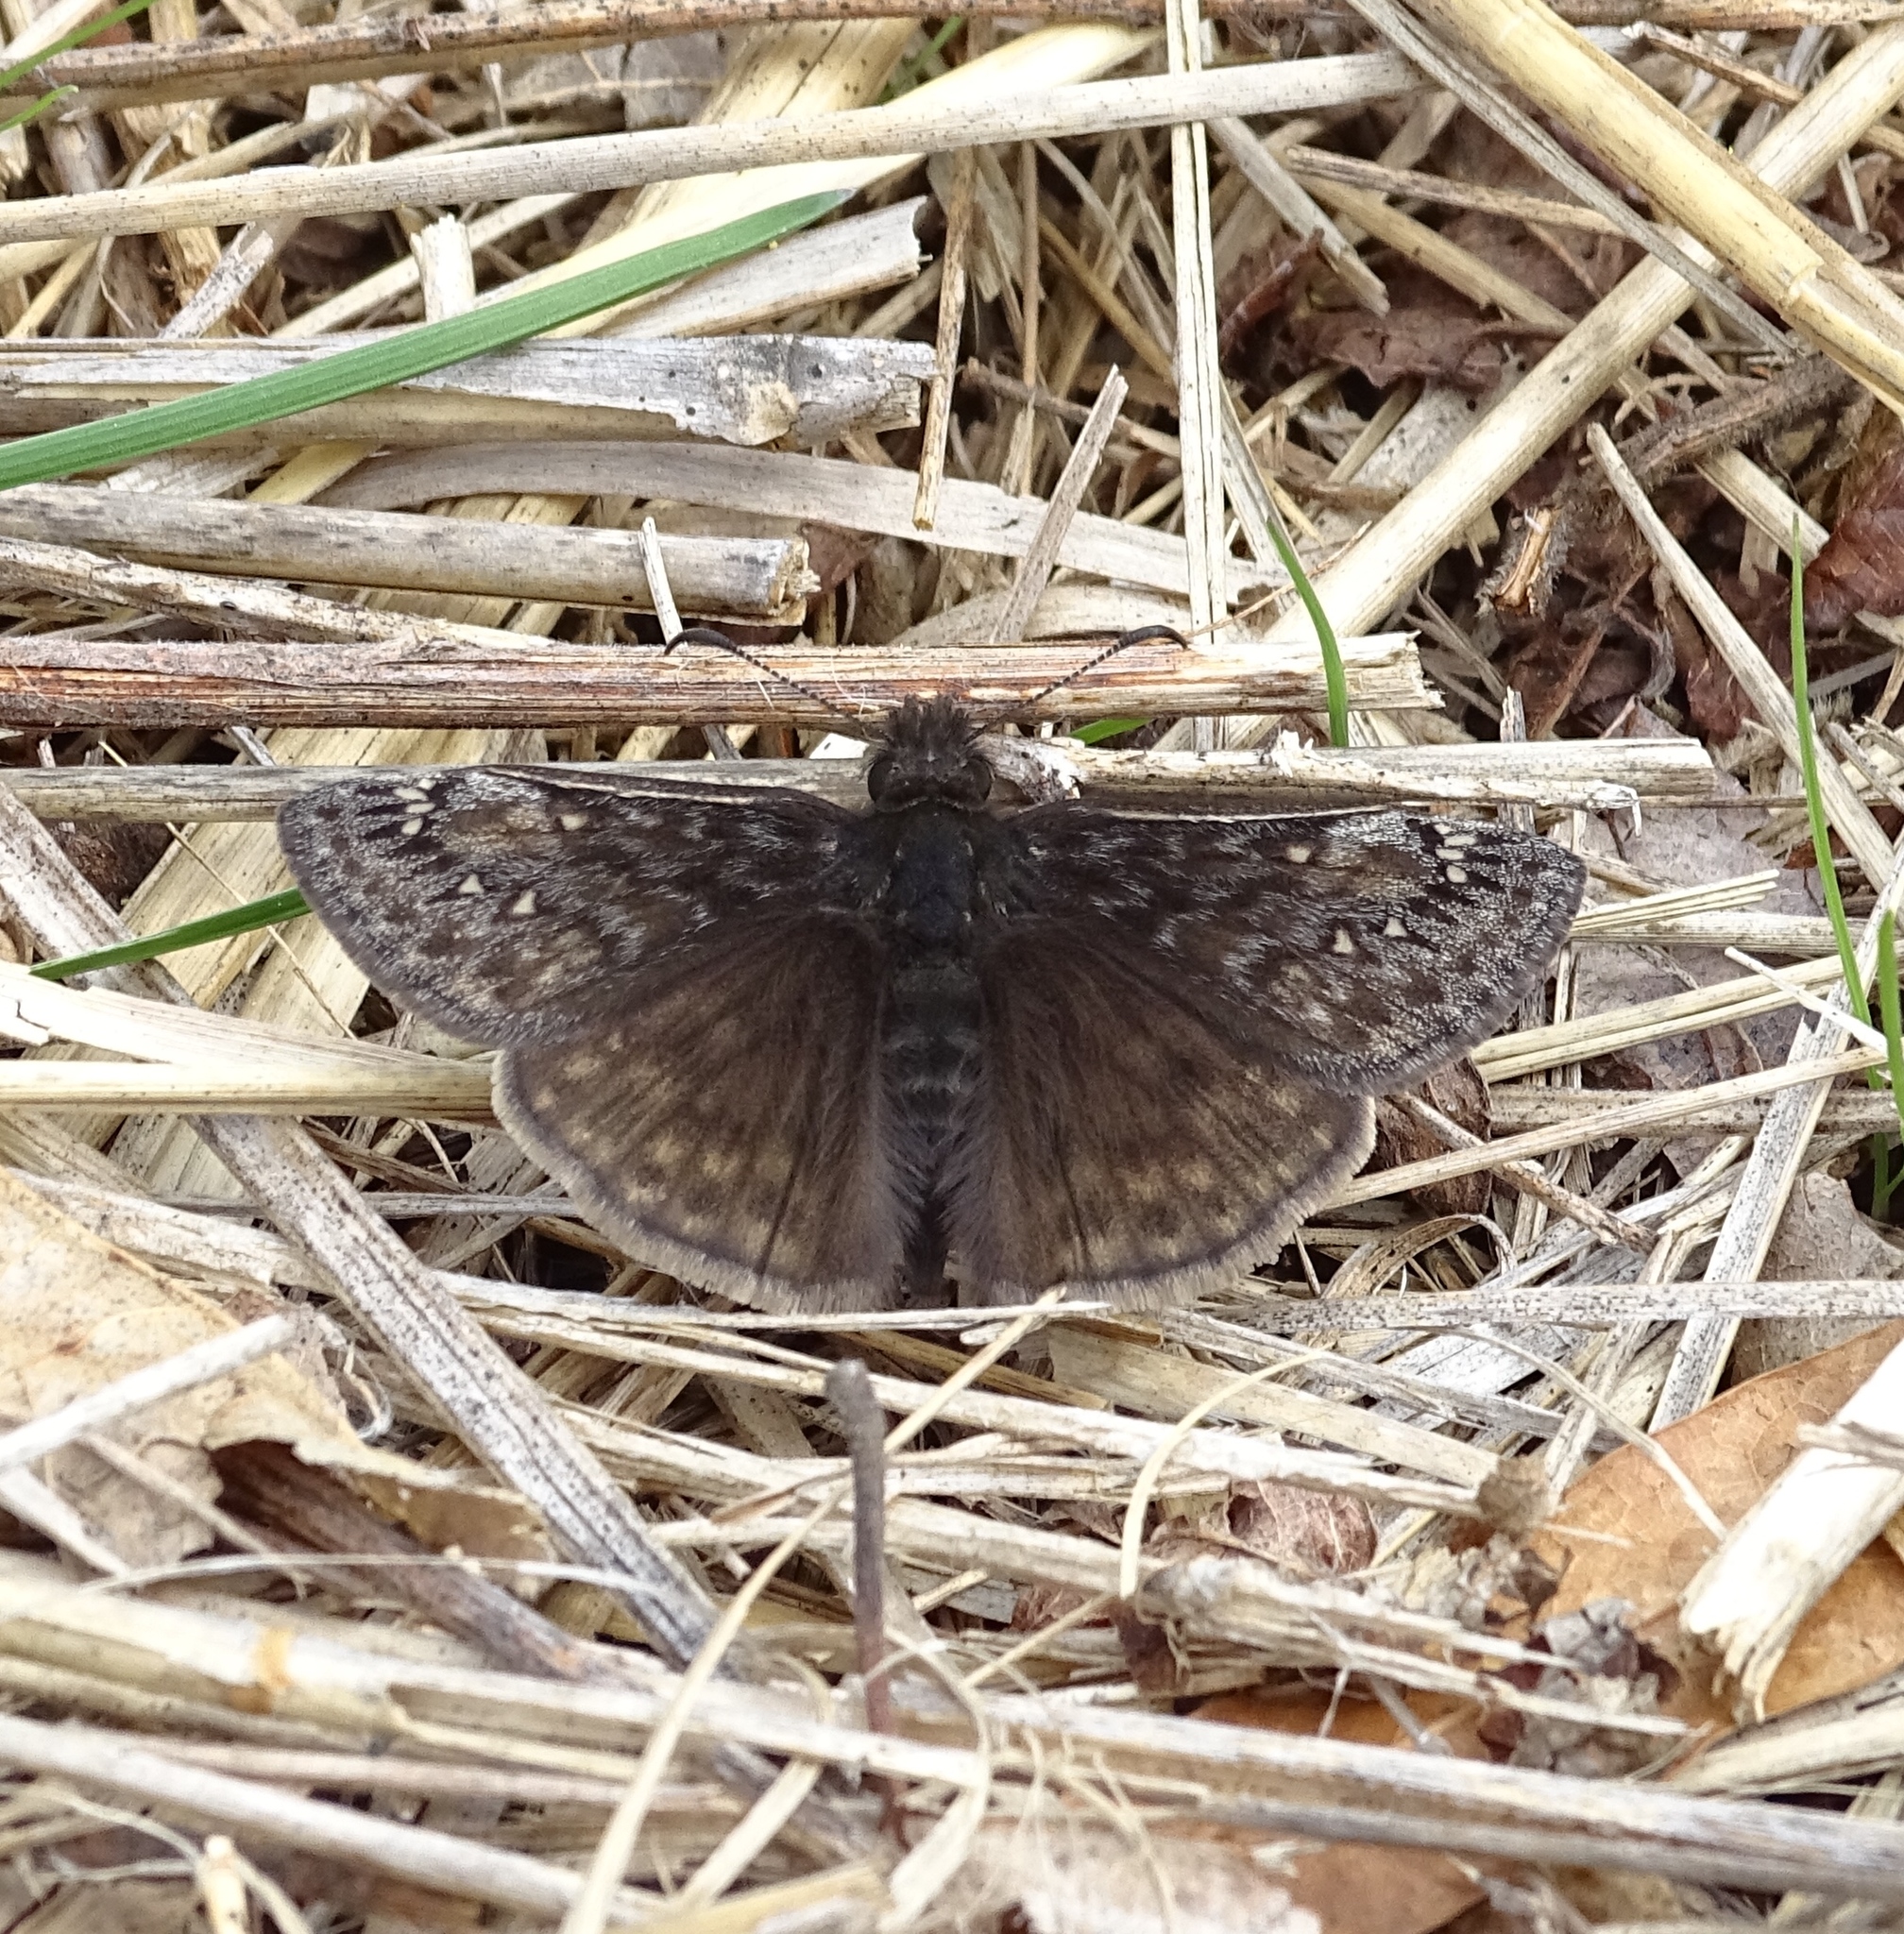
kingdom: Animalia
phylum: Arthropoda
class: Insecta
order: Lepidoptera
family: Hesperiidae
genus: Erynnis
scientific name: Erynnis juvenalis
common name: Juvenal's duskywing
